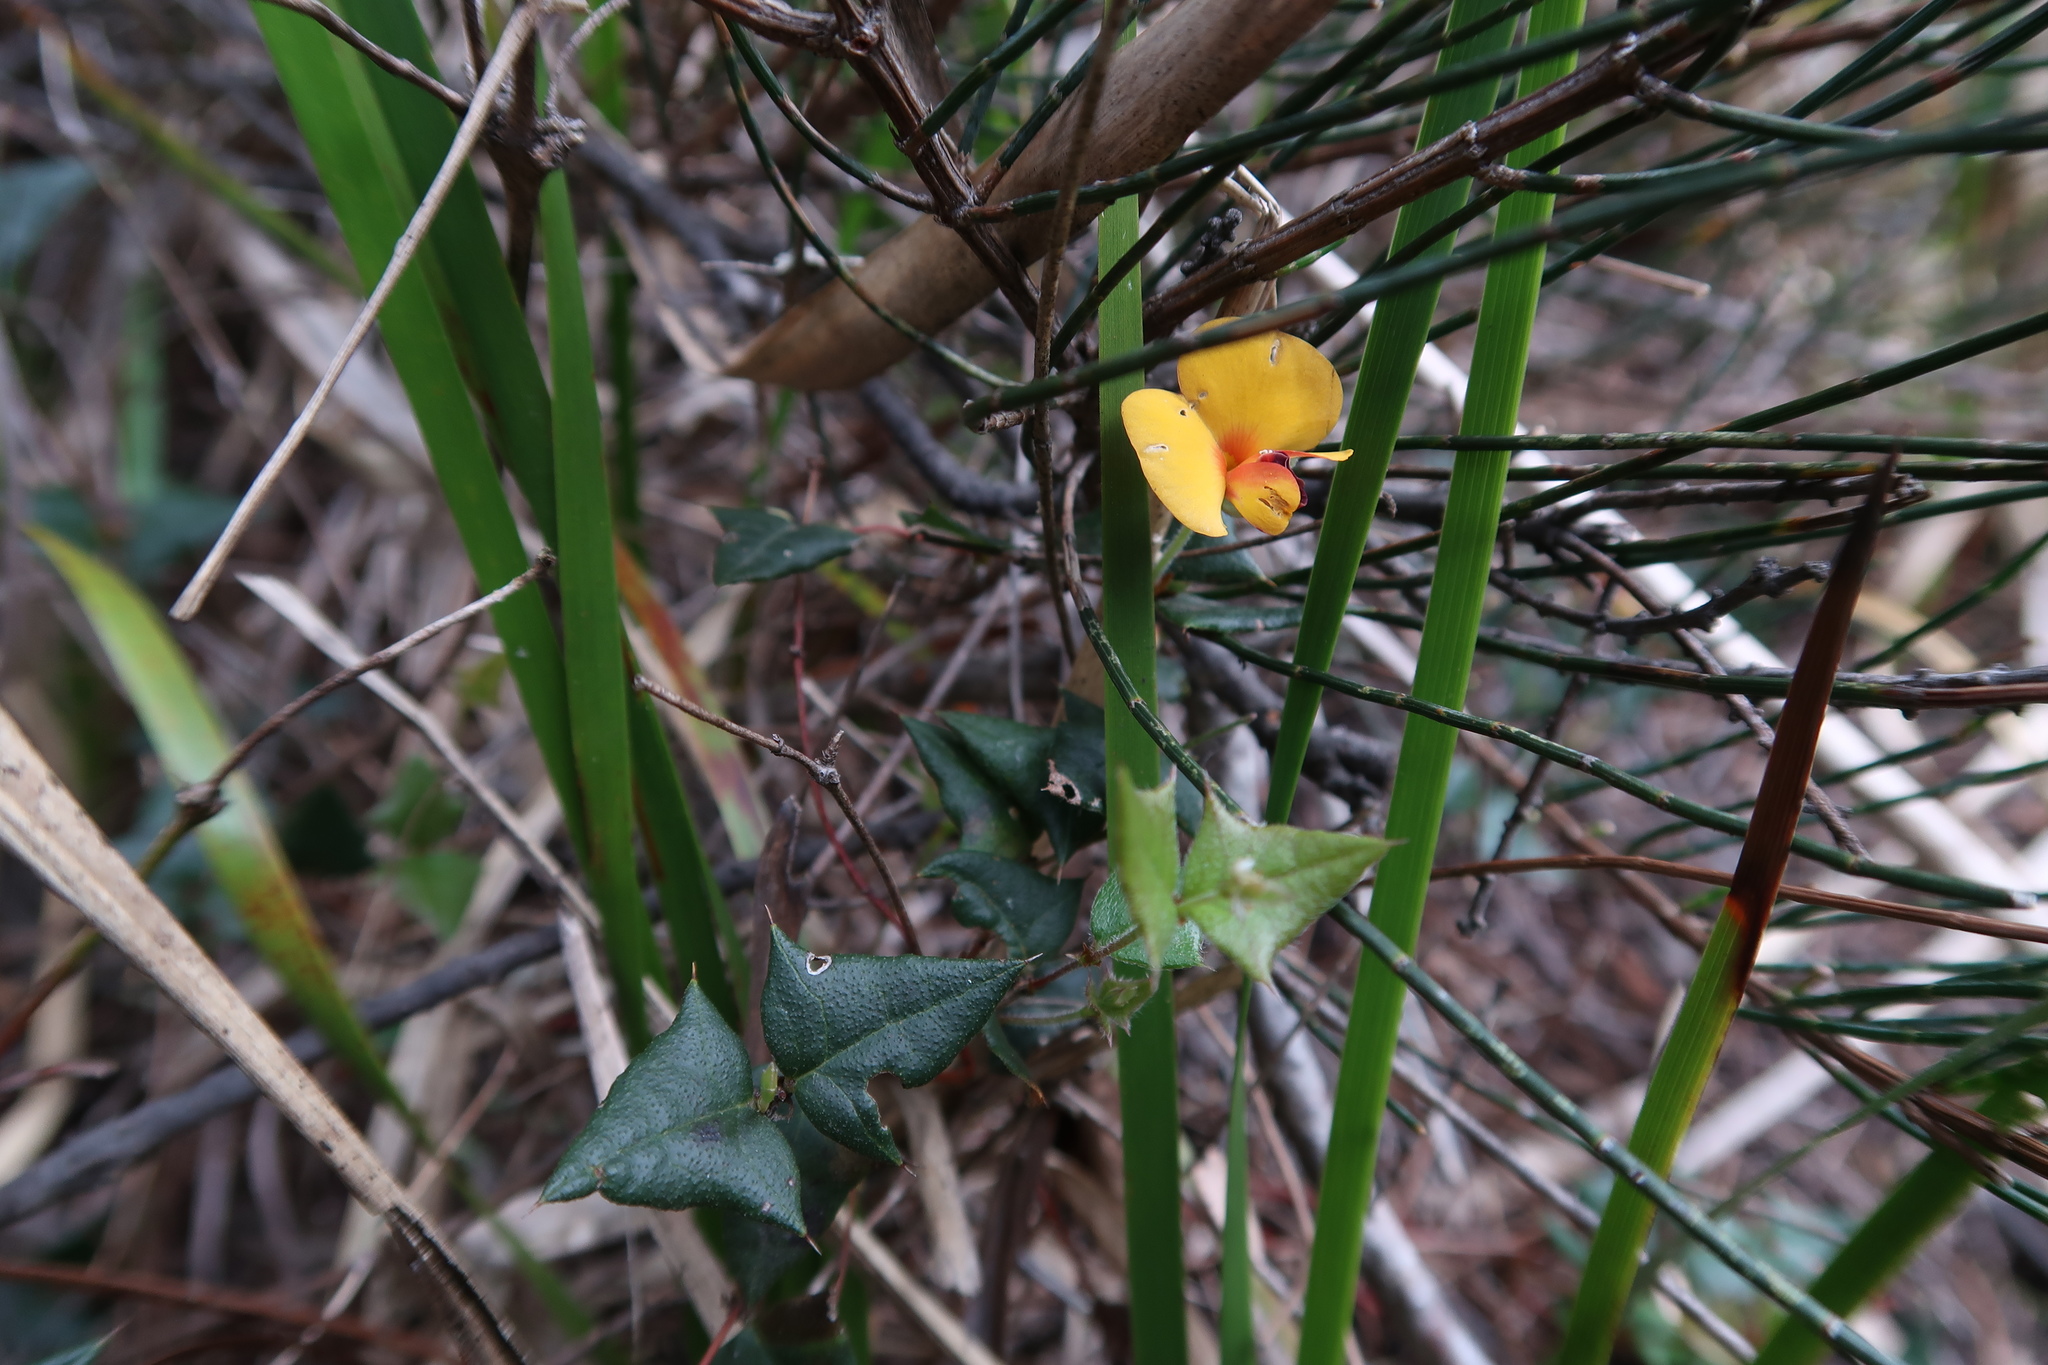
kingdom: Plantae
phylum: Tracheophyta
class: Magnoliopsida
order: Fabales
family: Fabaceae
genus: Platylobium
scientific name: Platylobium triangulare
